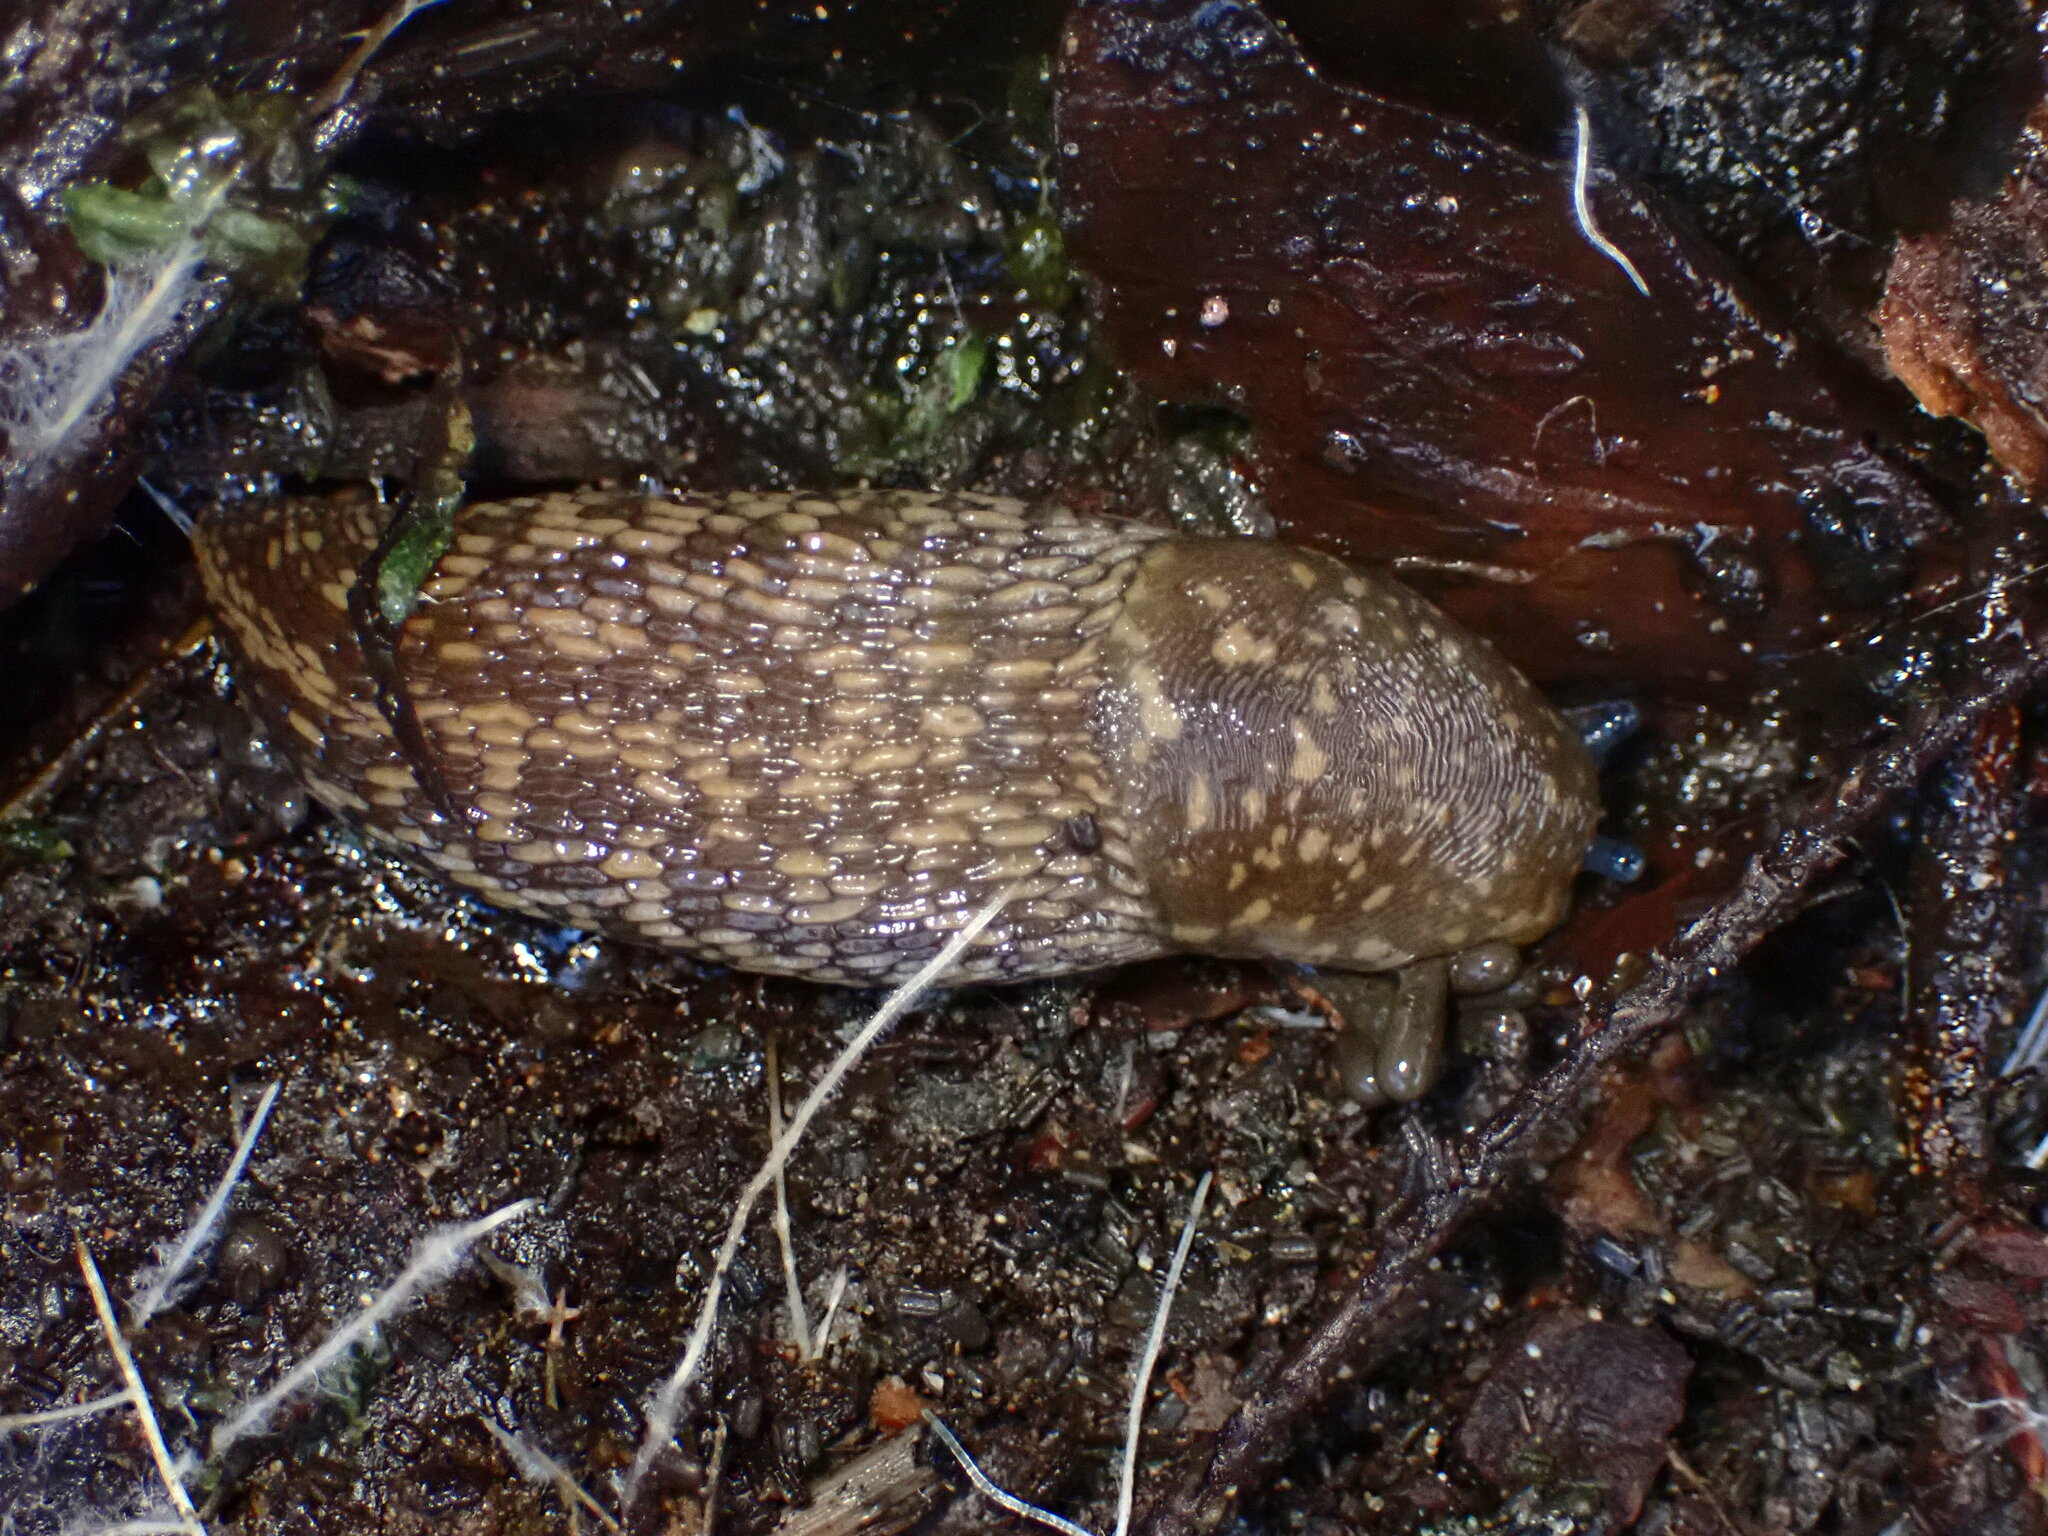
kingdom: Animalia
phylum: Mollusca
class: Gastropoda
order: Stylommatophora
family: Limacidae
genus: Limacus
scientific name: Limacus flavus
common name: Yellow gardenslug
